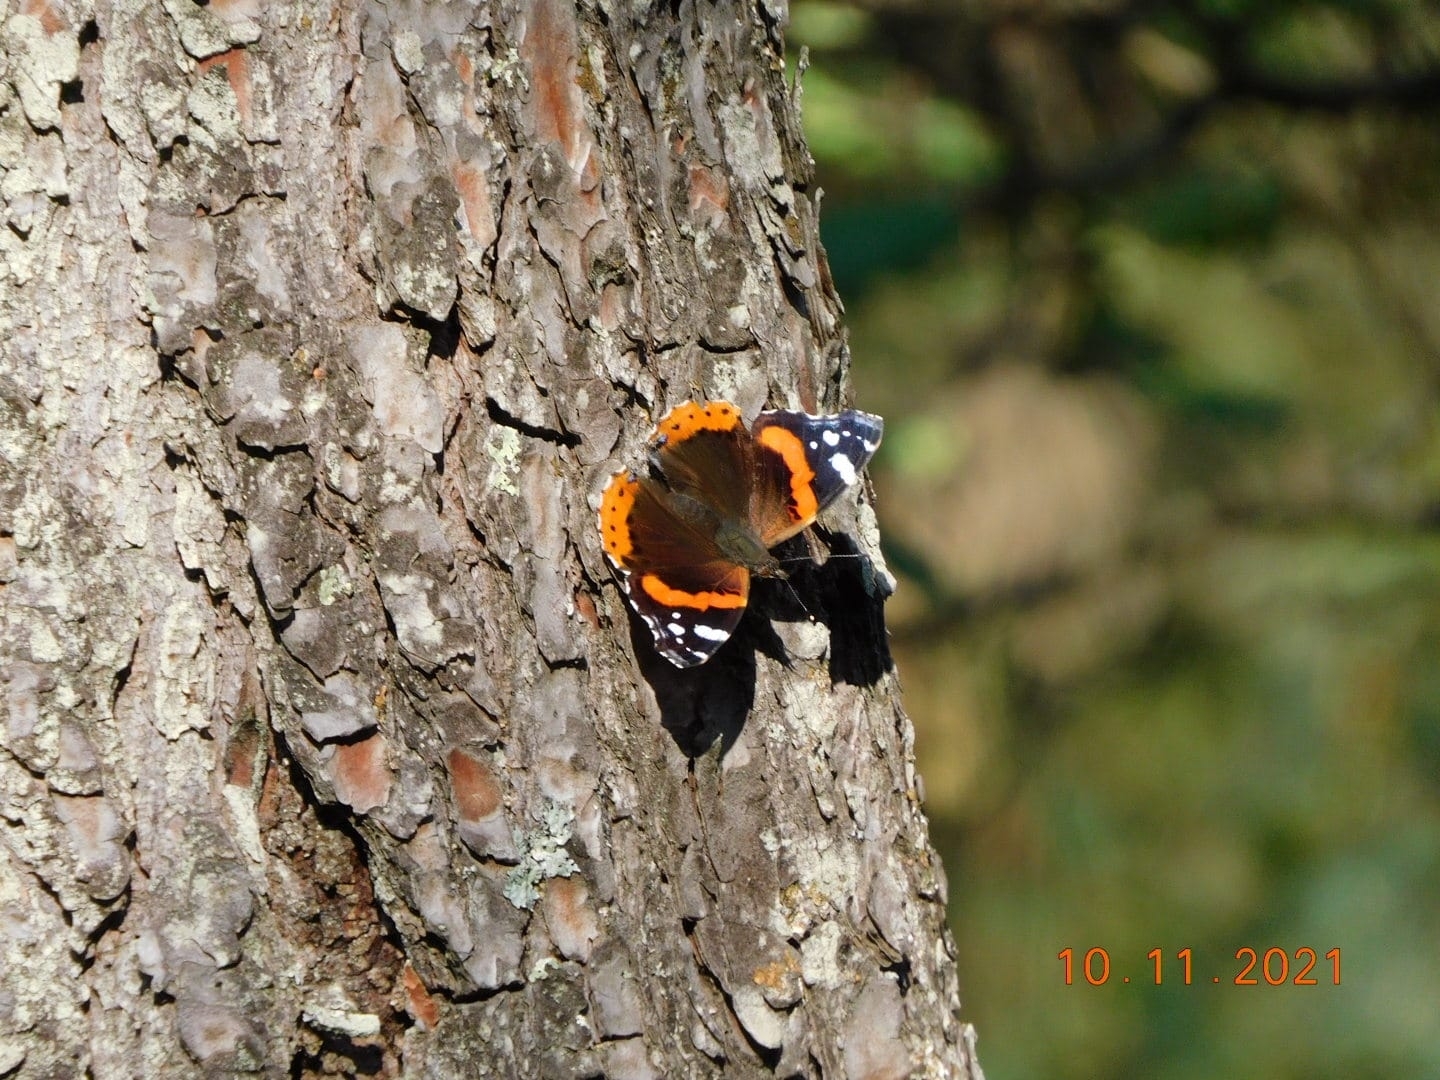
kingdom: Animalia
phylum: Arthropoda
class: Insecta
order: Lepidoptera
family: Nymphalidae
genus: Vanessa
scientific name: Vanessa atalanta
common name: Red admiral
